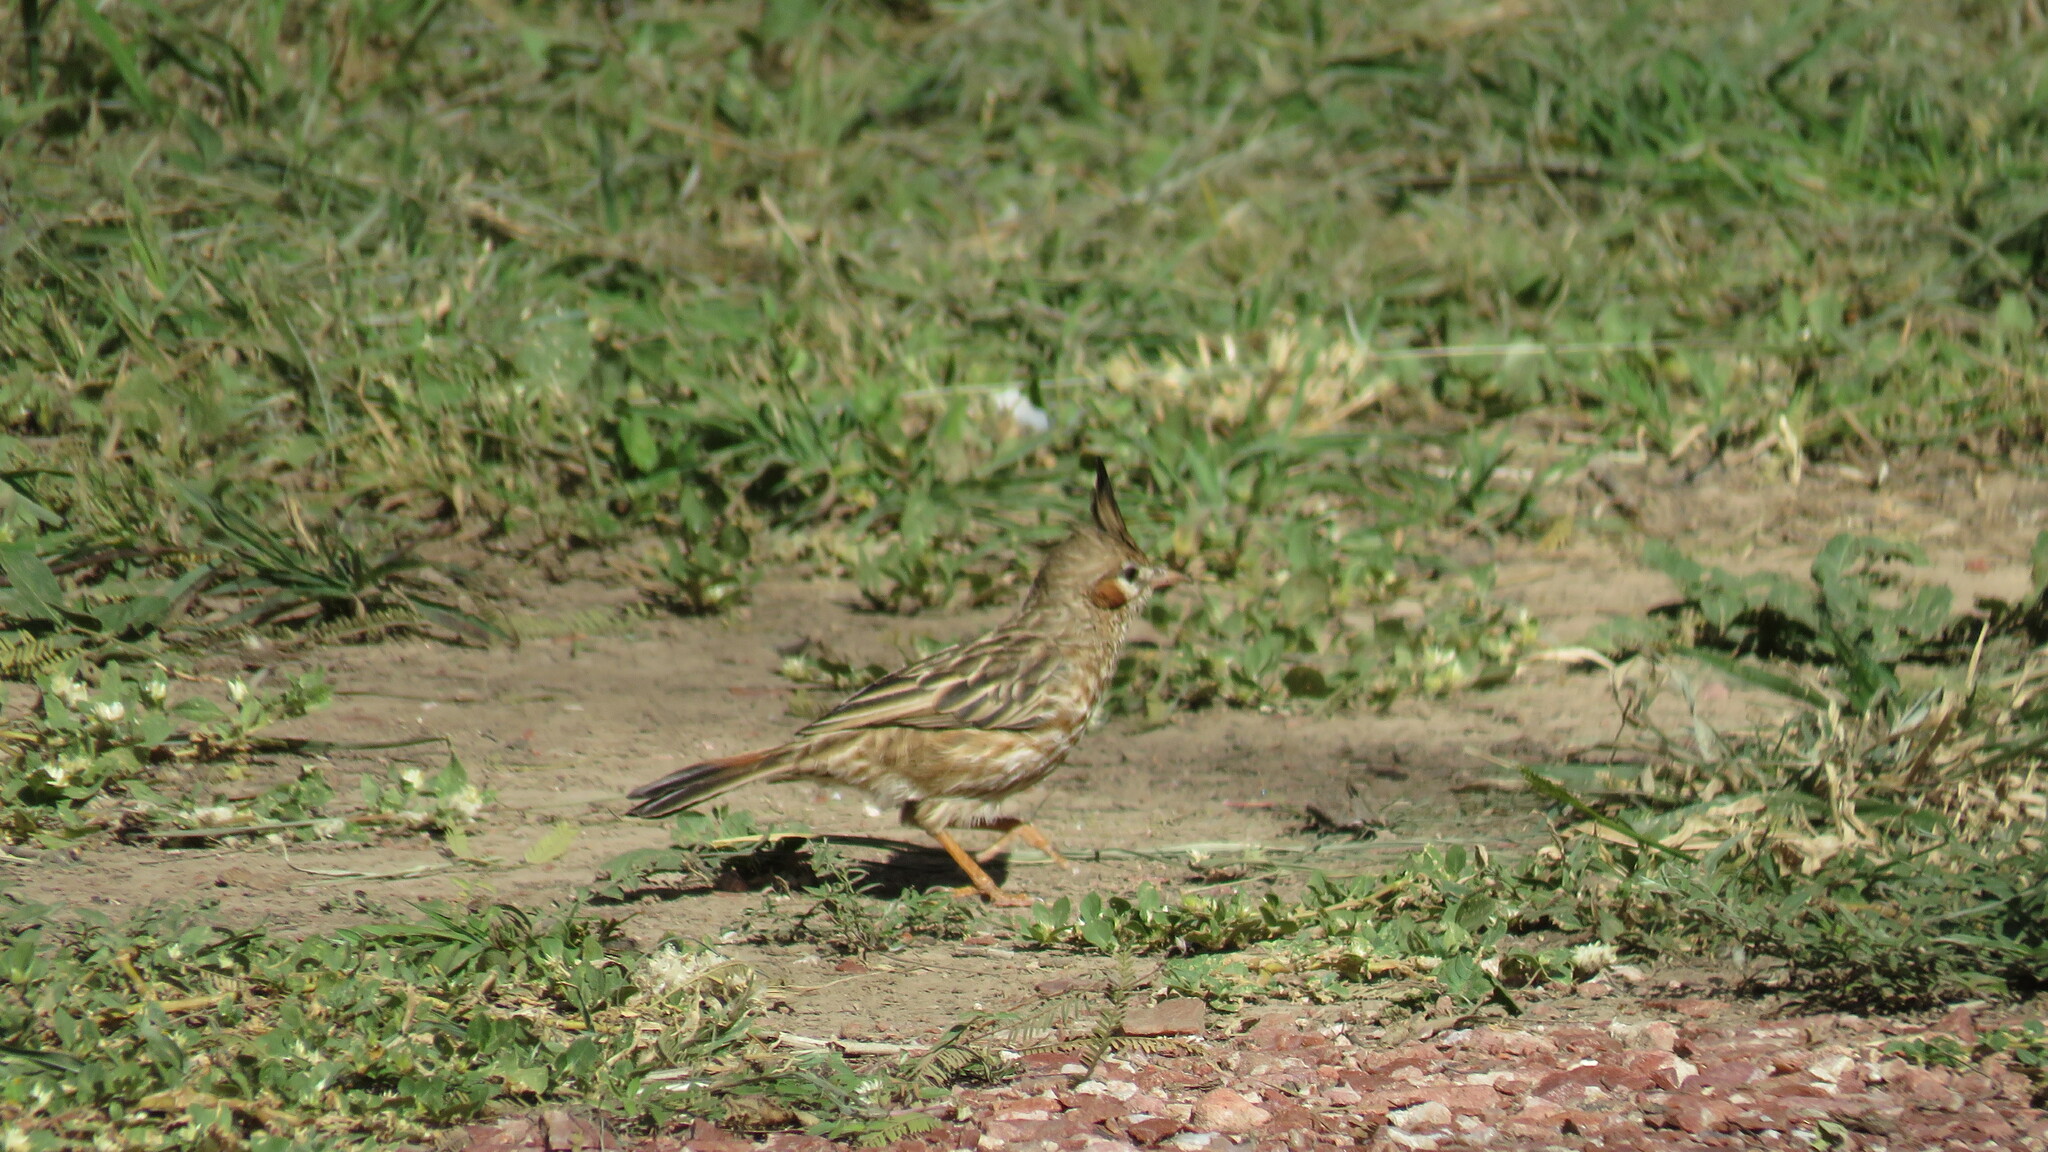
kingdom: Animalia
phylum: Chordata
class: Aves
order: Passeriformes
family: Furnariidae
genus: Coryphistera
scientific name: Coryphistera alaudina
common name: Lark-like brushrunner
